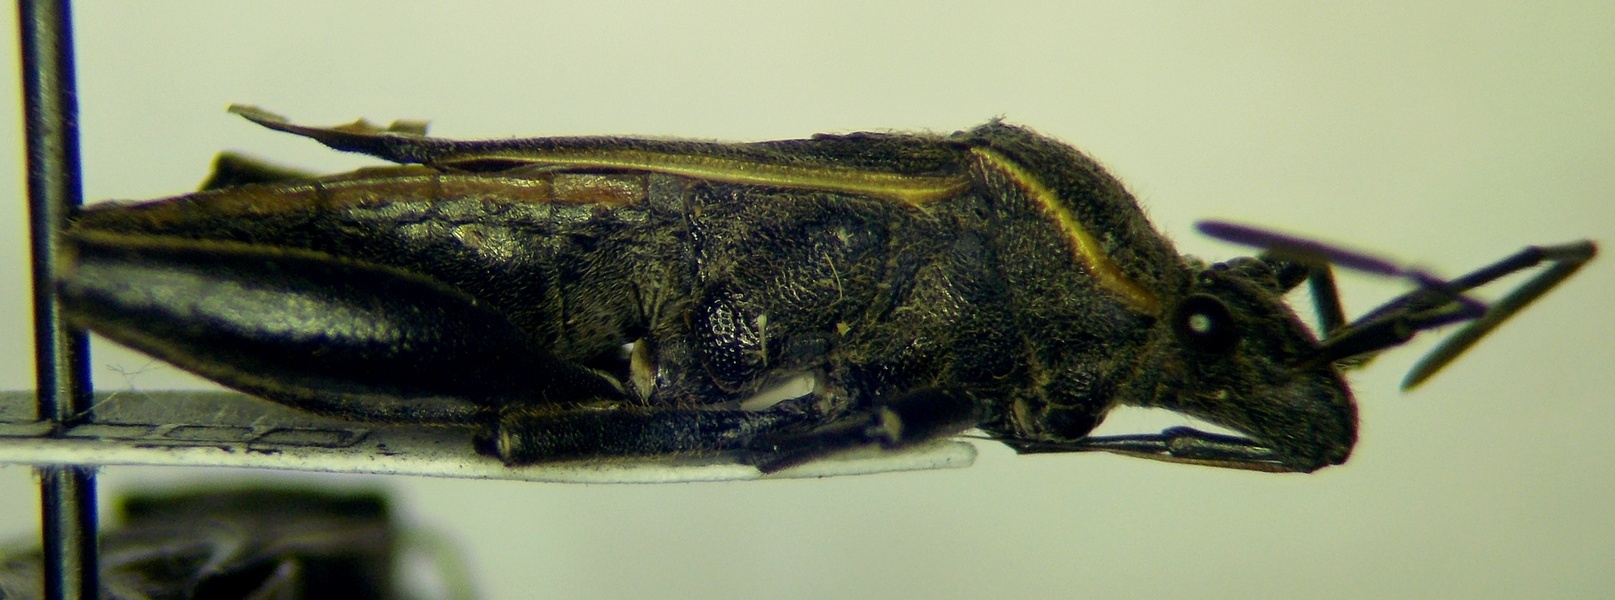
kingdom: Animalia
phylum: Arthropoda
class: Insecta
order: Hemiptera
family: Alydidae
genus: Camptopus
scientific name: Camptopus tragacanthae
